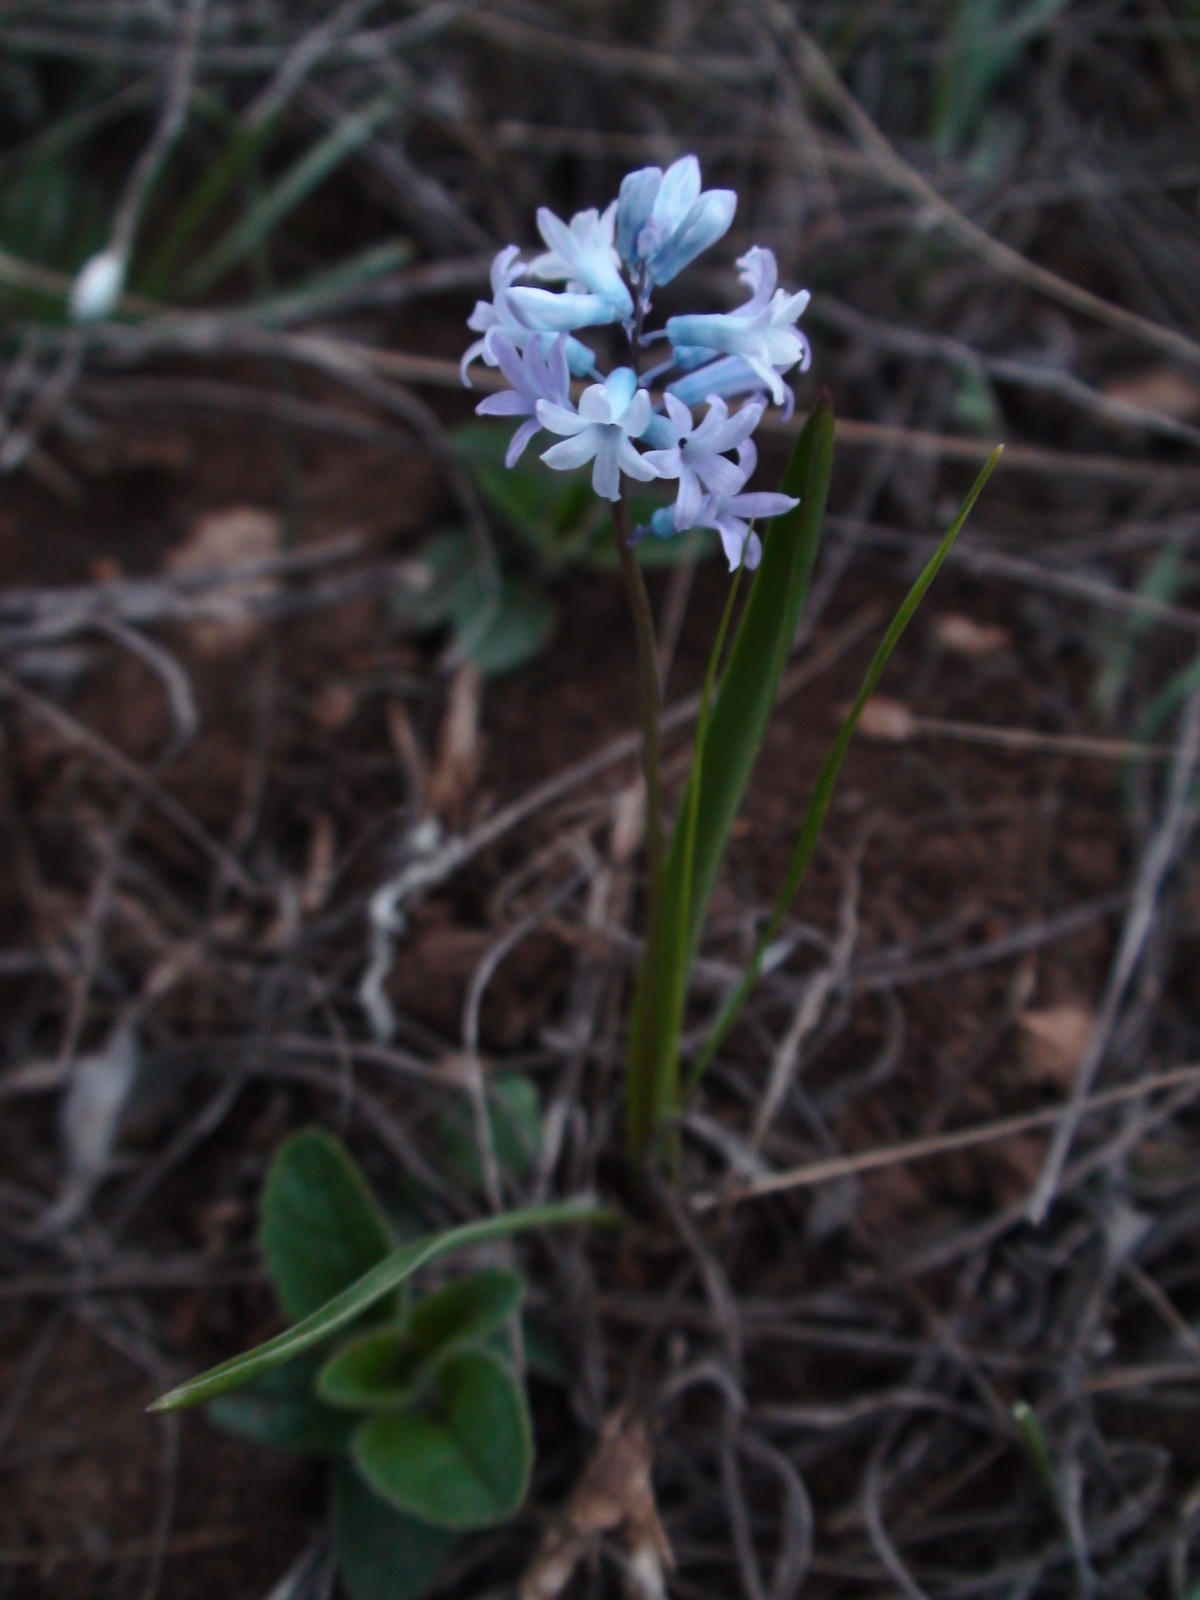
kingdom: Plantae
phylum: Tracheophyta
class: Liliopsida
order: Asparagales
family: Asparagaceae
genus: Hyacinthella
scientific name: Hyacinthella pallasiana
